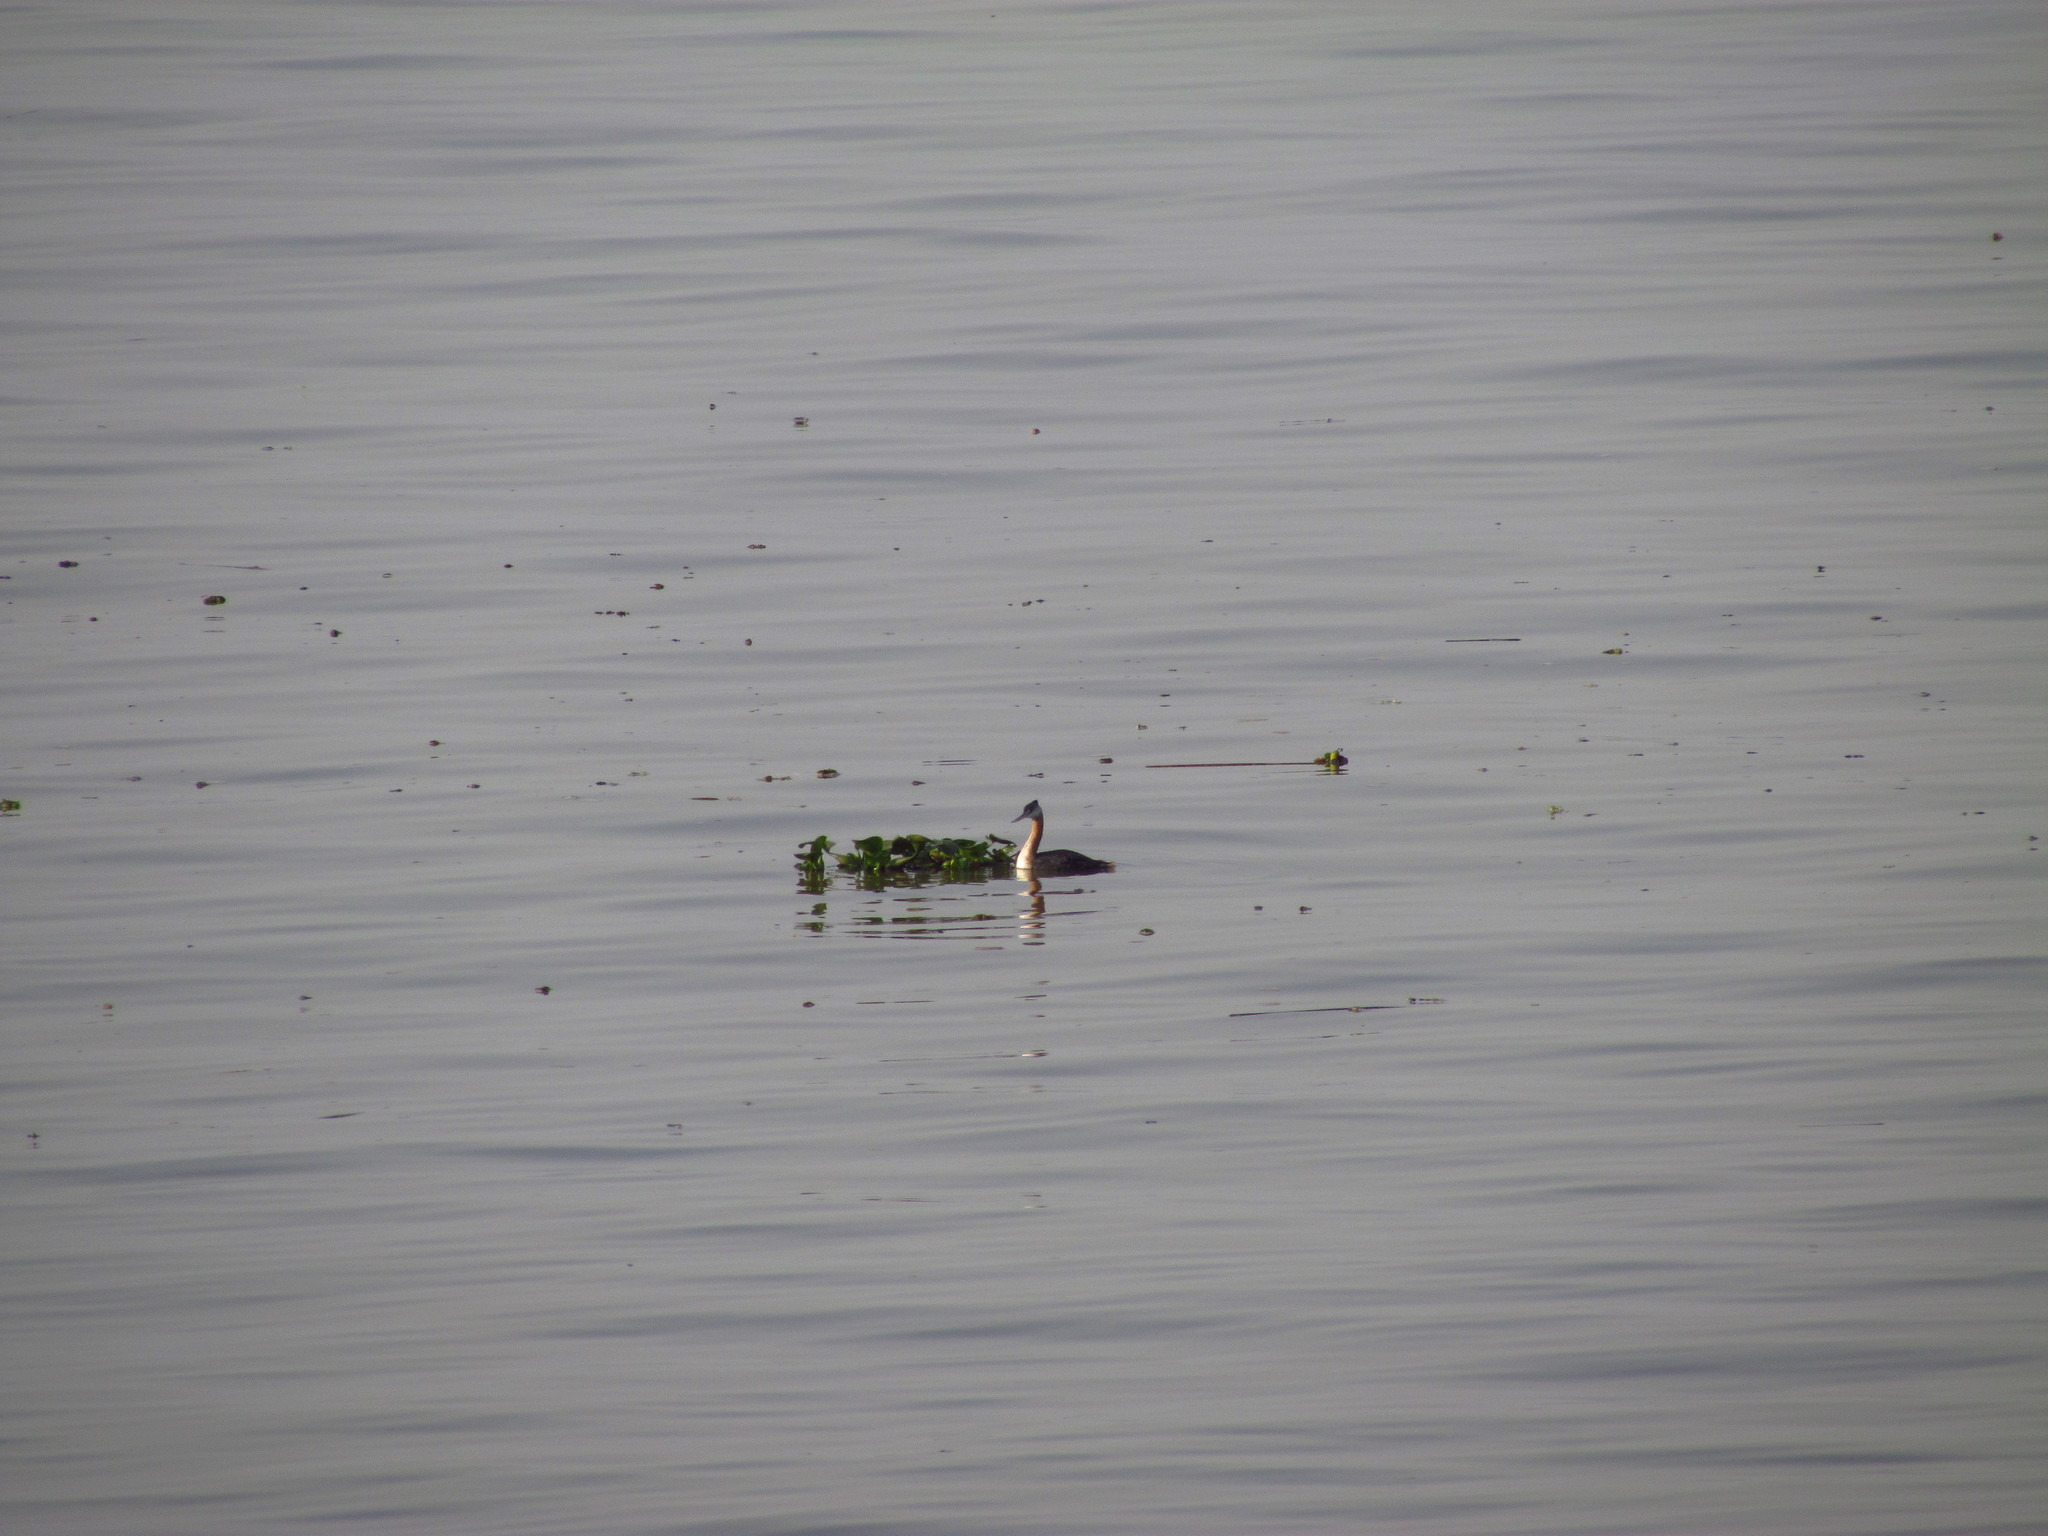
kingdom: Animalia
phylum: Chordata
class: Aves
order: Podicipediformes
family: Podicipedidae
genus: Podiceps
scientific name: Podiceps major
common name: Great grebe
